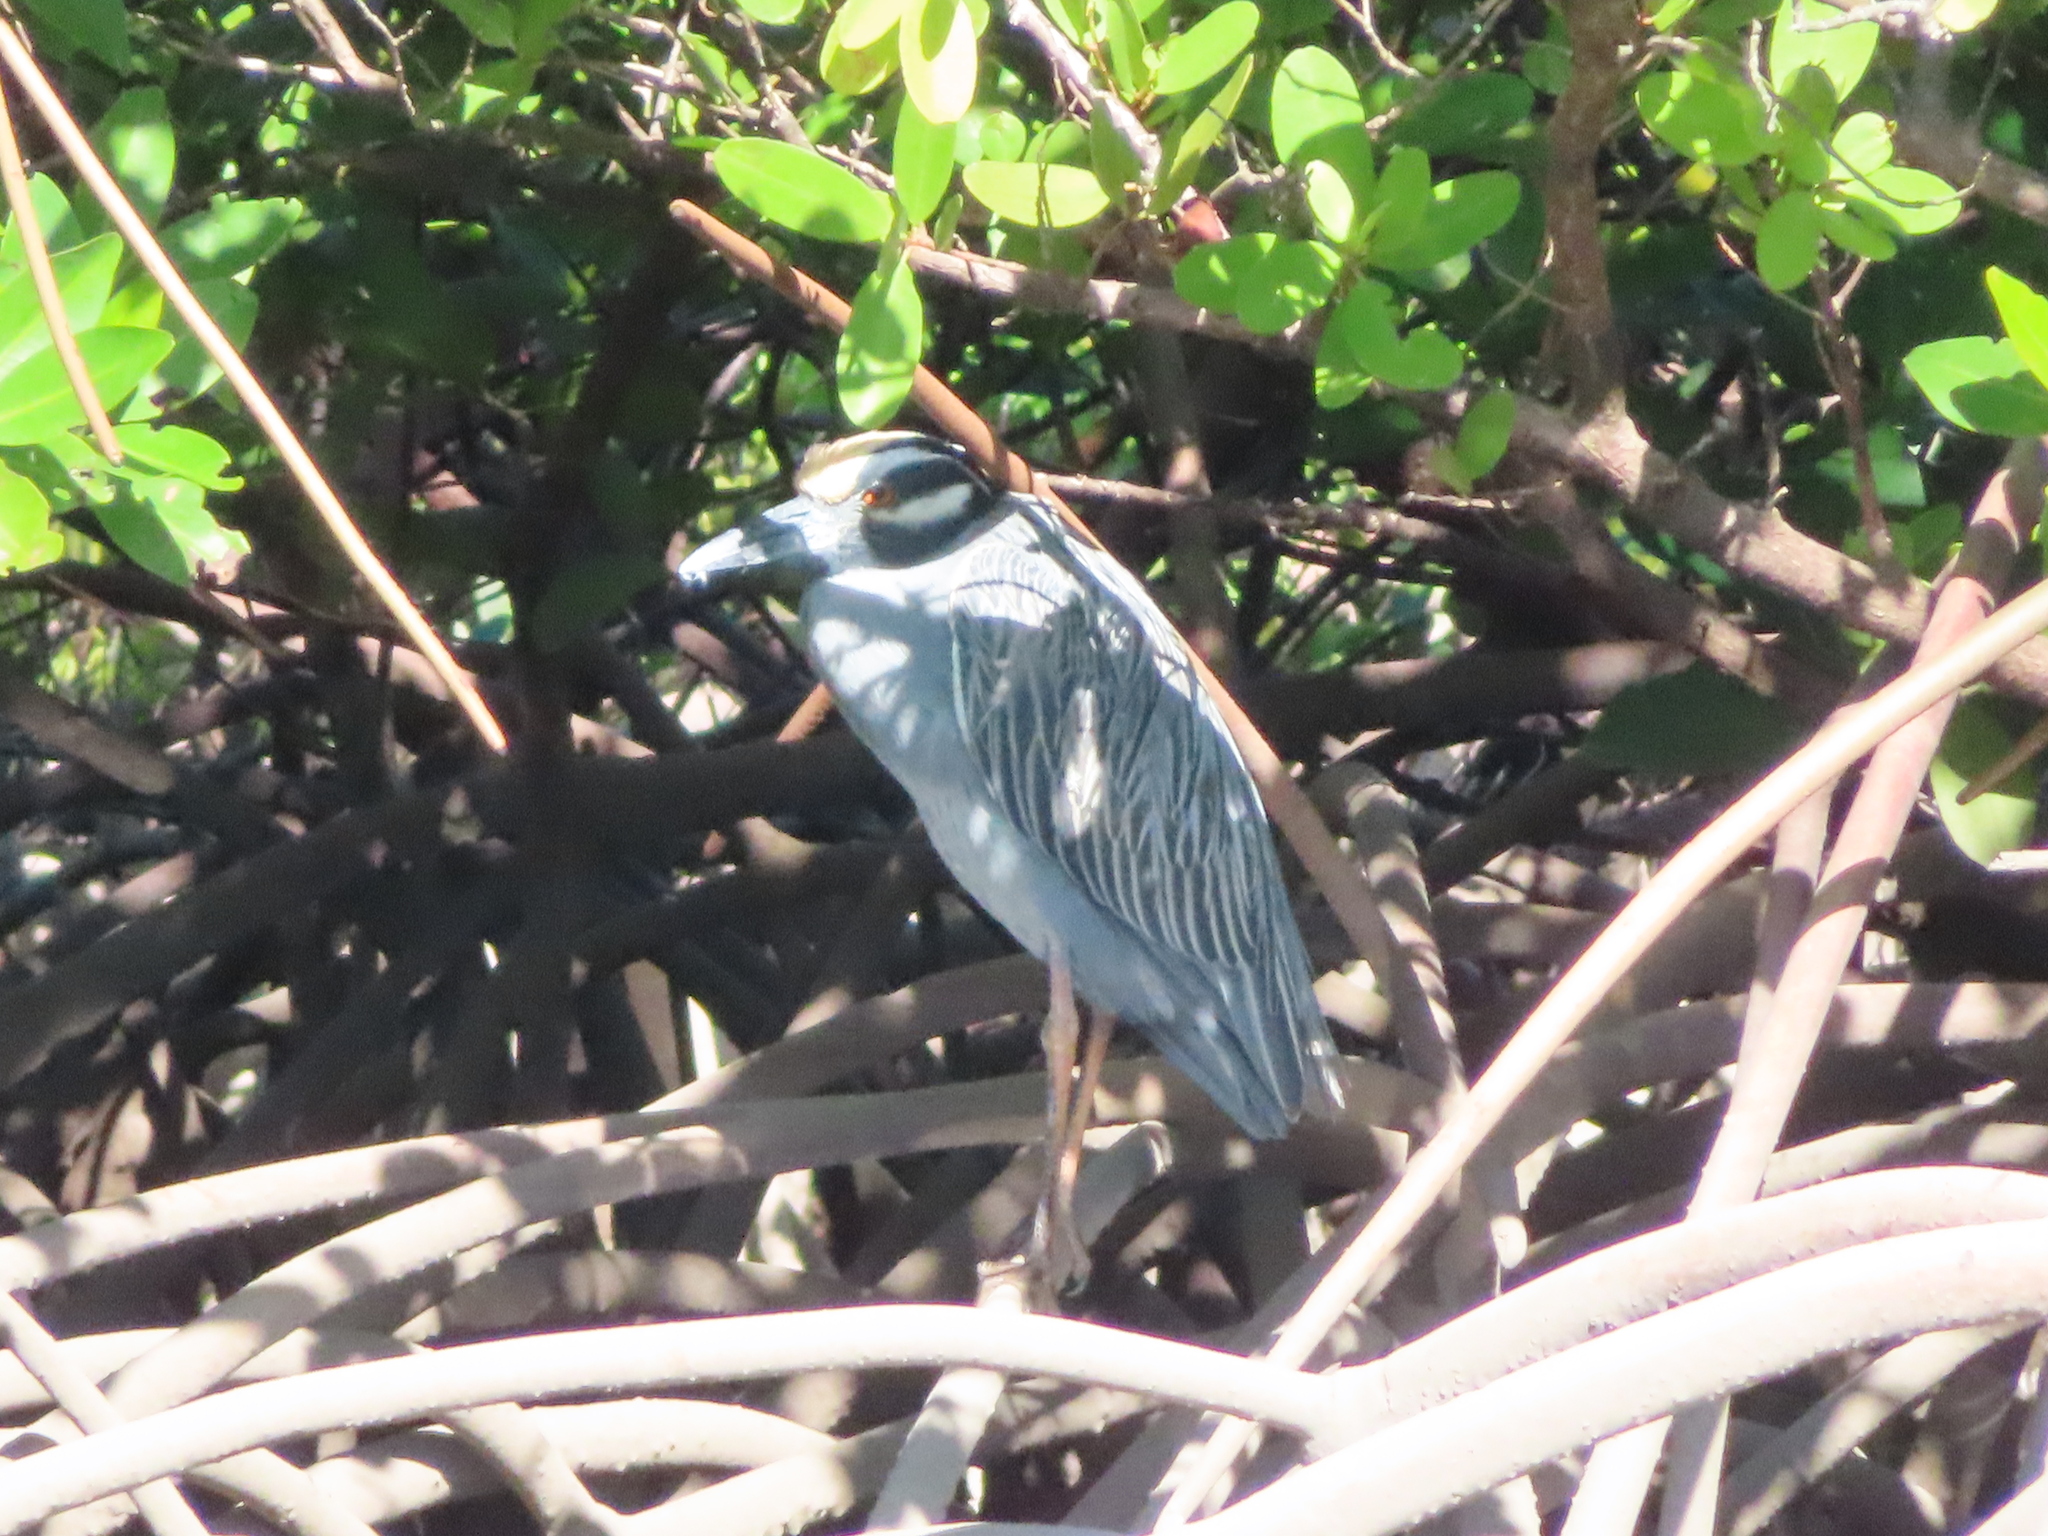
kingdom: Animalia
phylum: Chordata
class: Aves
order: Pelecaniformes
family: Ardeidae
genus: Nyctanassa
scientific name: Nyctanassa violacea
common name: Yellow-crowned night heron
